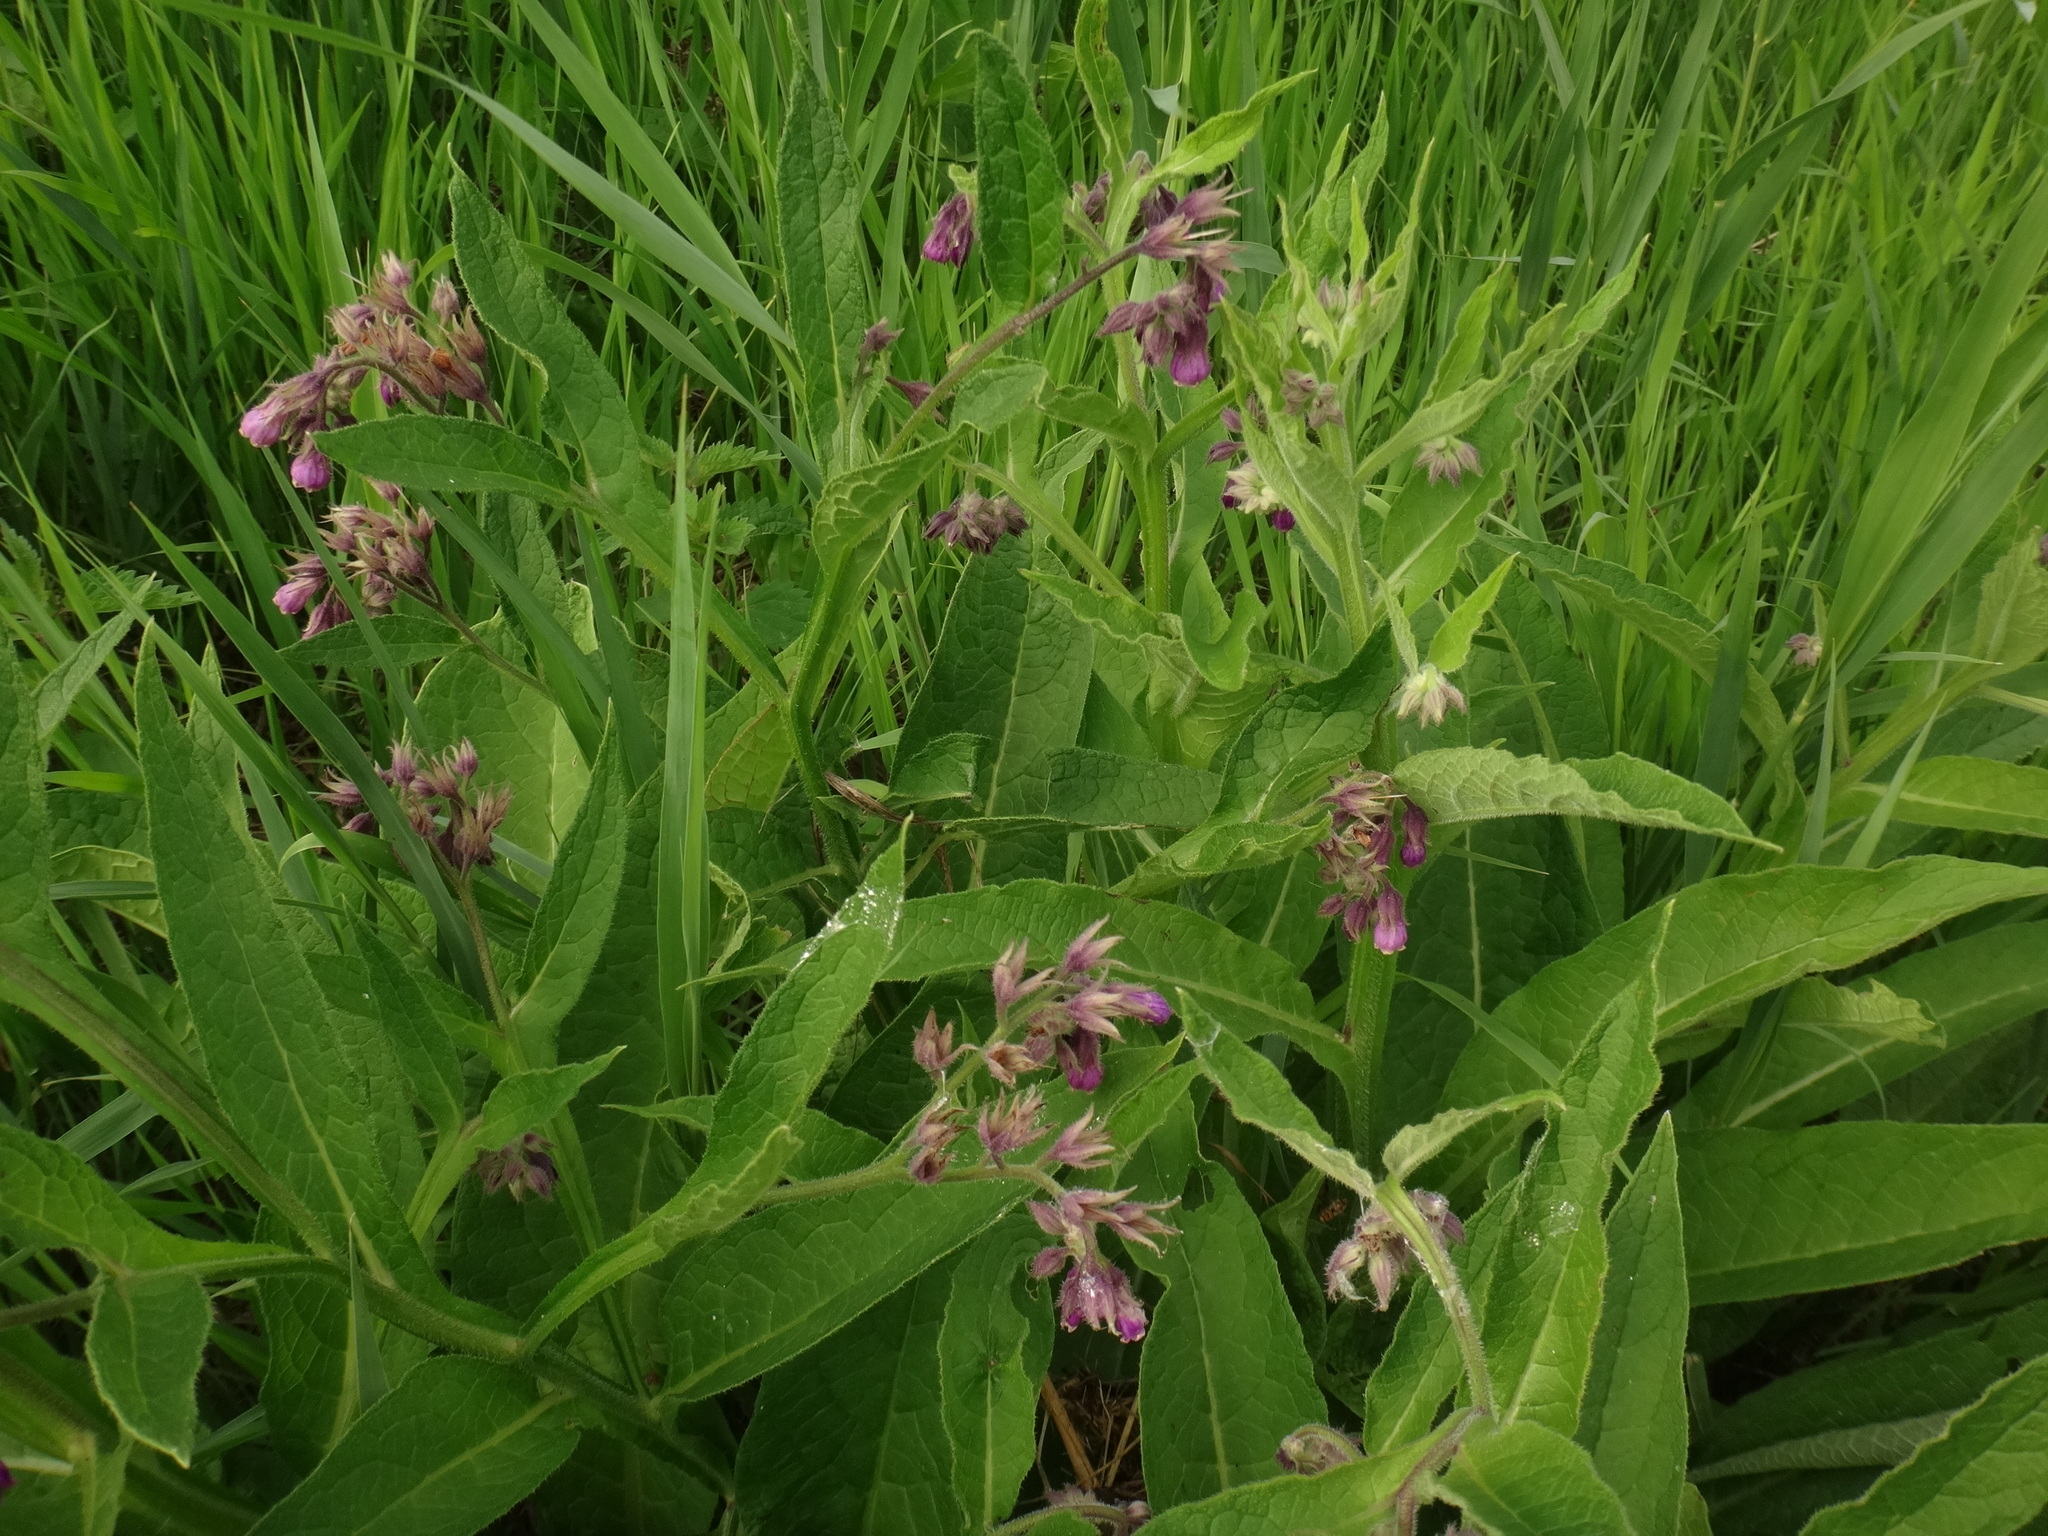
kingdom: Plantae
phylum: Tracheophyta
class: Magnoliopsida
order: Boraginales
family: Boraginaceae
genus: Symphytum
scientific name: Symphytum officinale
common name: Common comfrey
